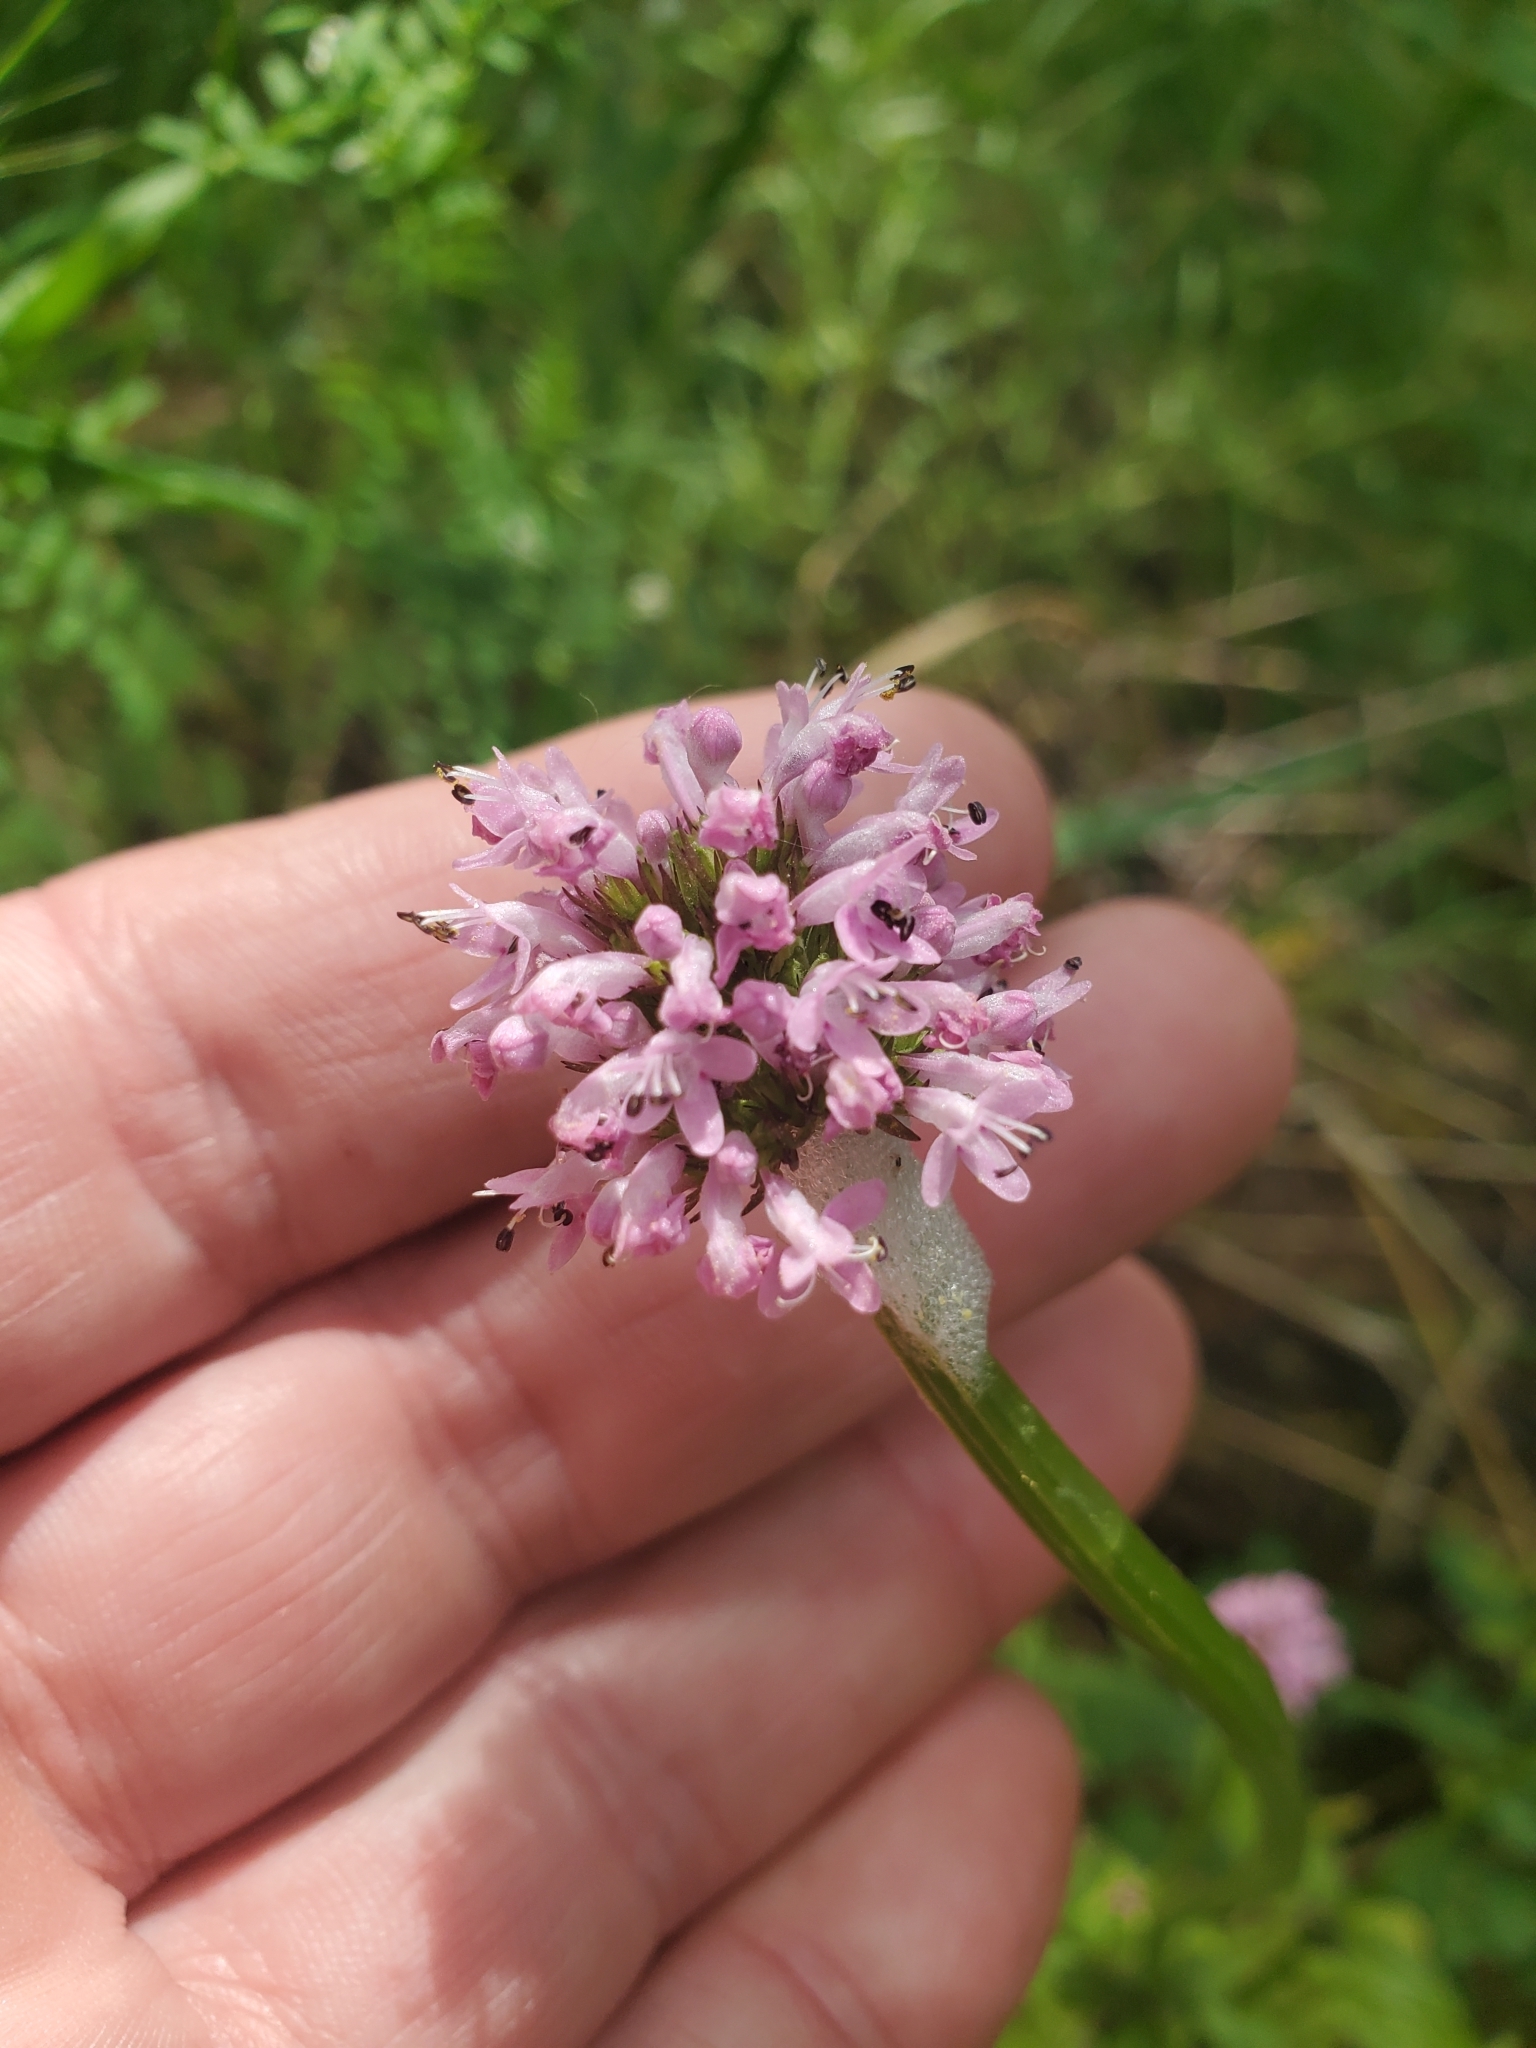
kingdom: Plantae
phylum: Tracheophyta
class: Magnoliopsida
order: Dipsacales
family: Caprifoliaceae
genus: Plectritis
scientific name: Plectritis congesta
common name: Pink plectritis
